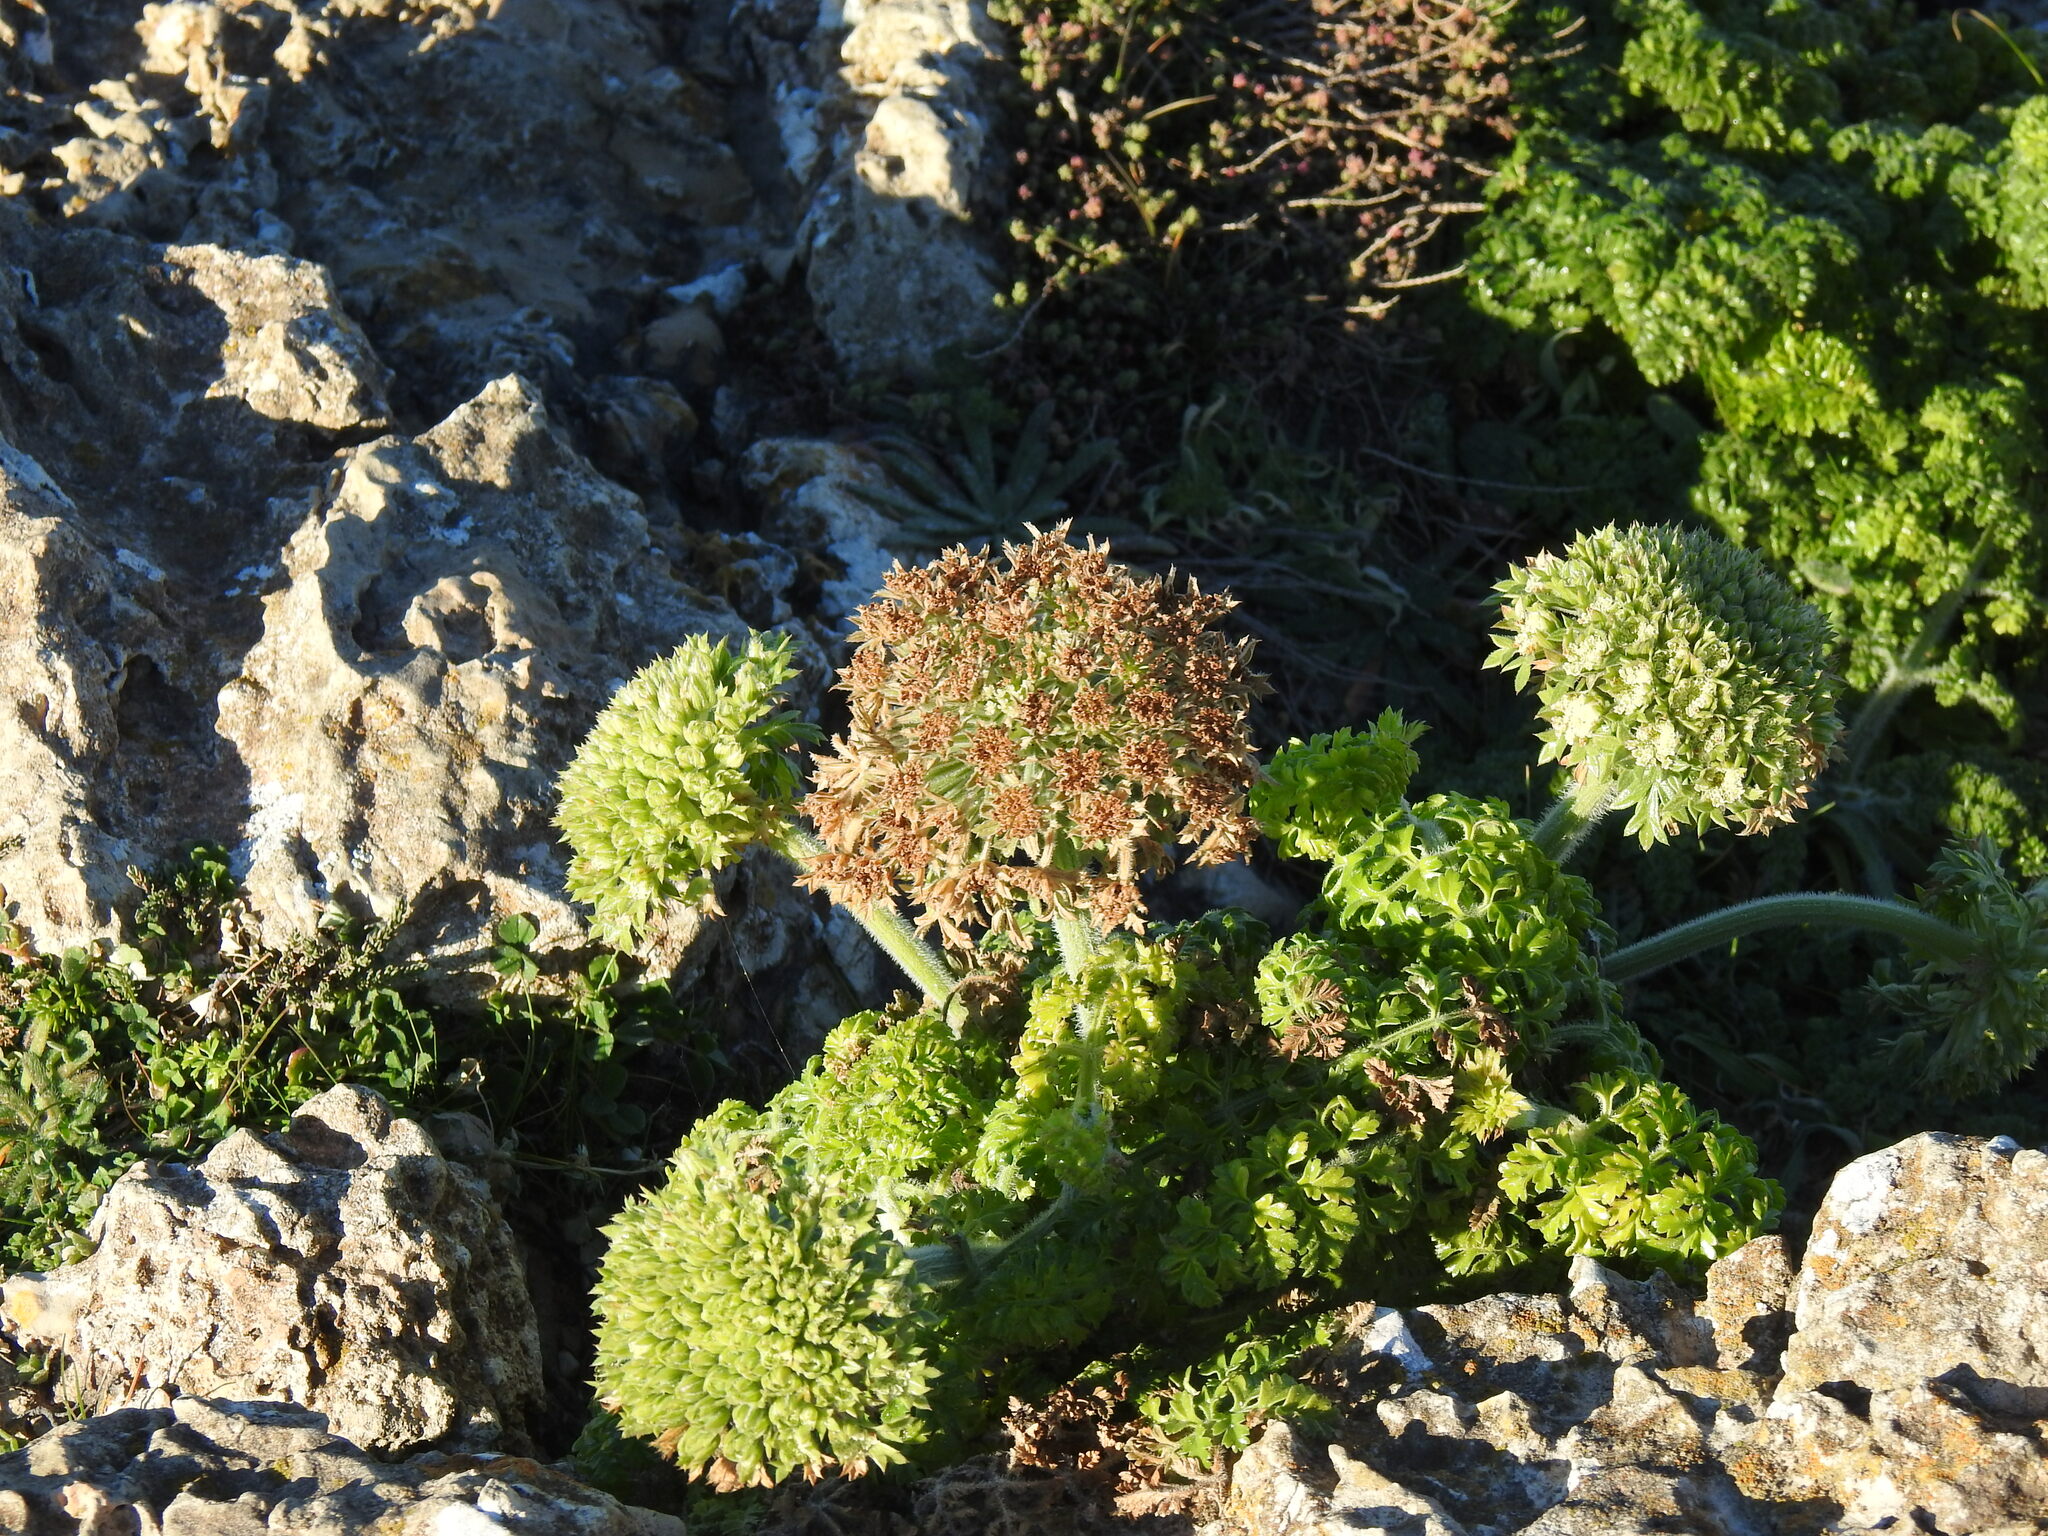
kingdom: Plantae
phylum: Tracheophyta
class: Magnoliopsida
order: Apiales
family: Apiaceae
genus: Daucus
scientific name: Daucus carota
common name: Wild carrot
